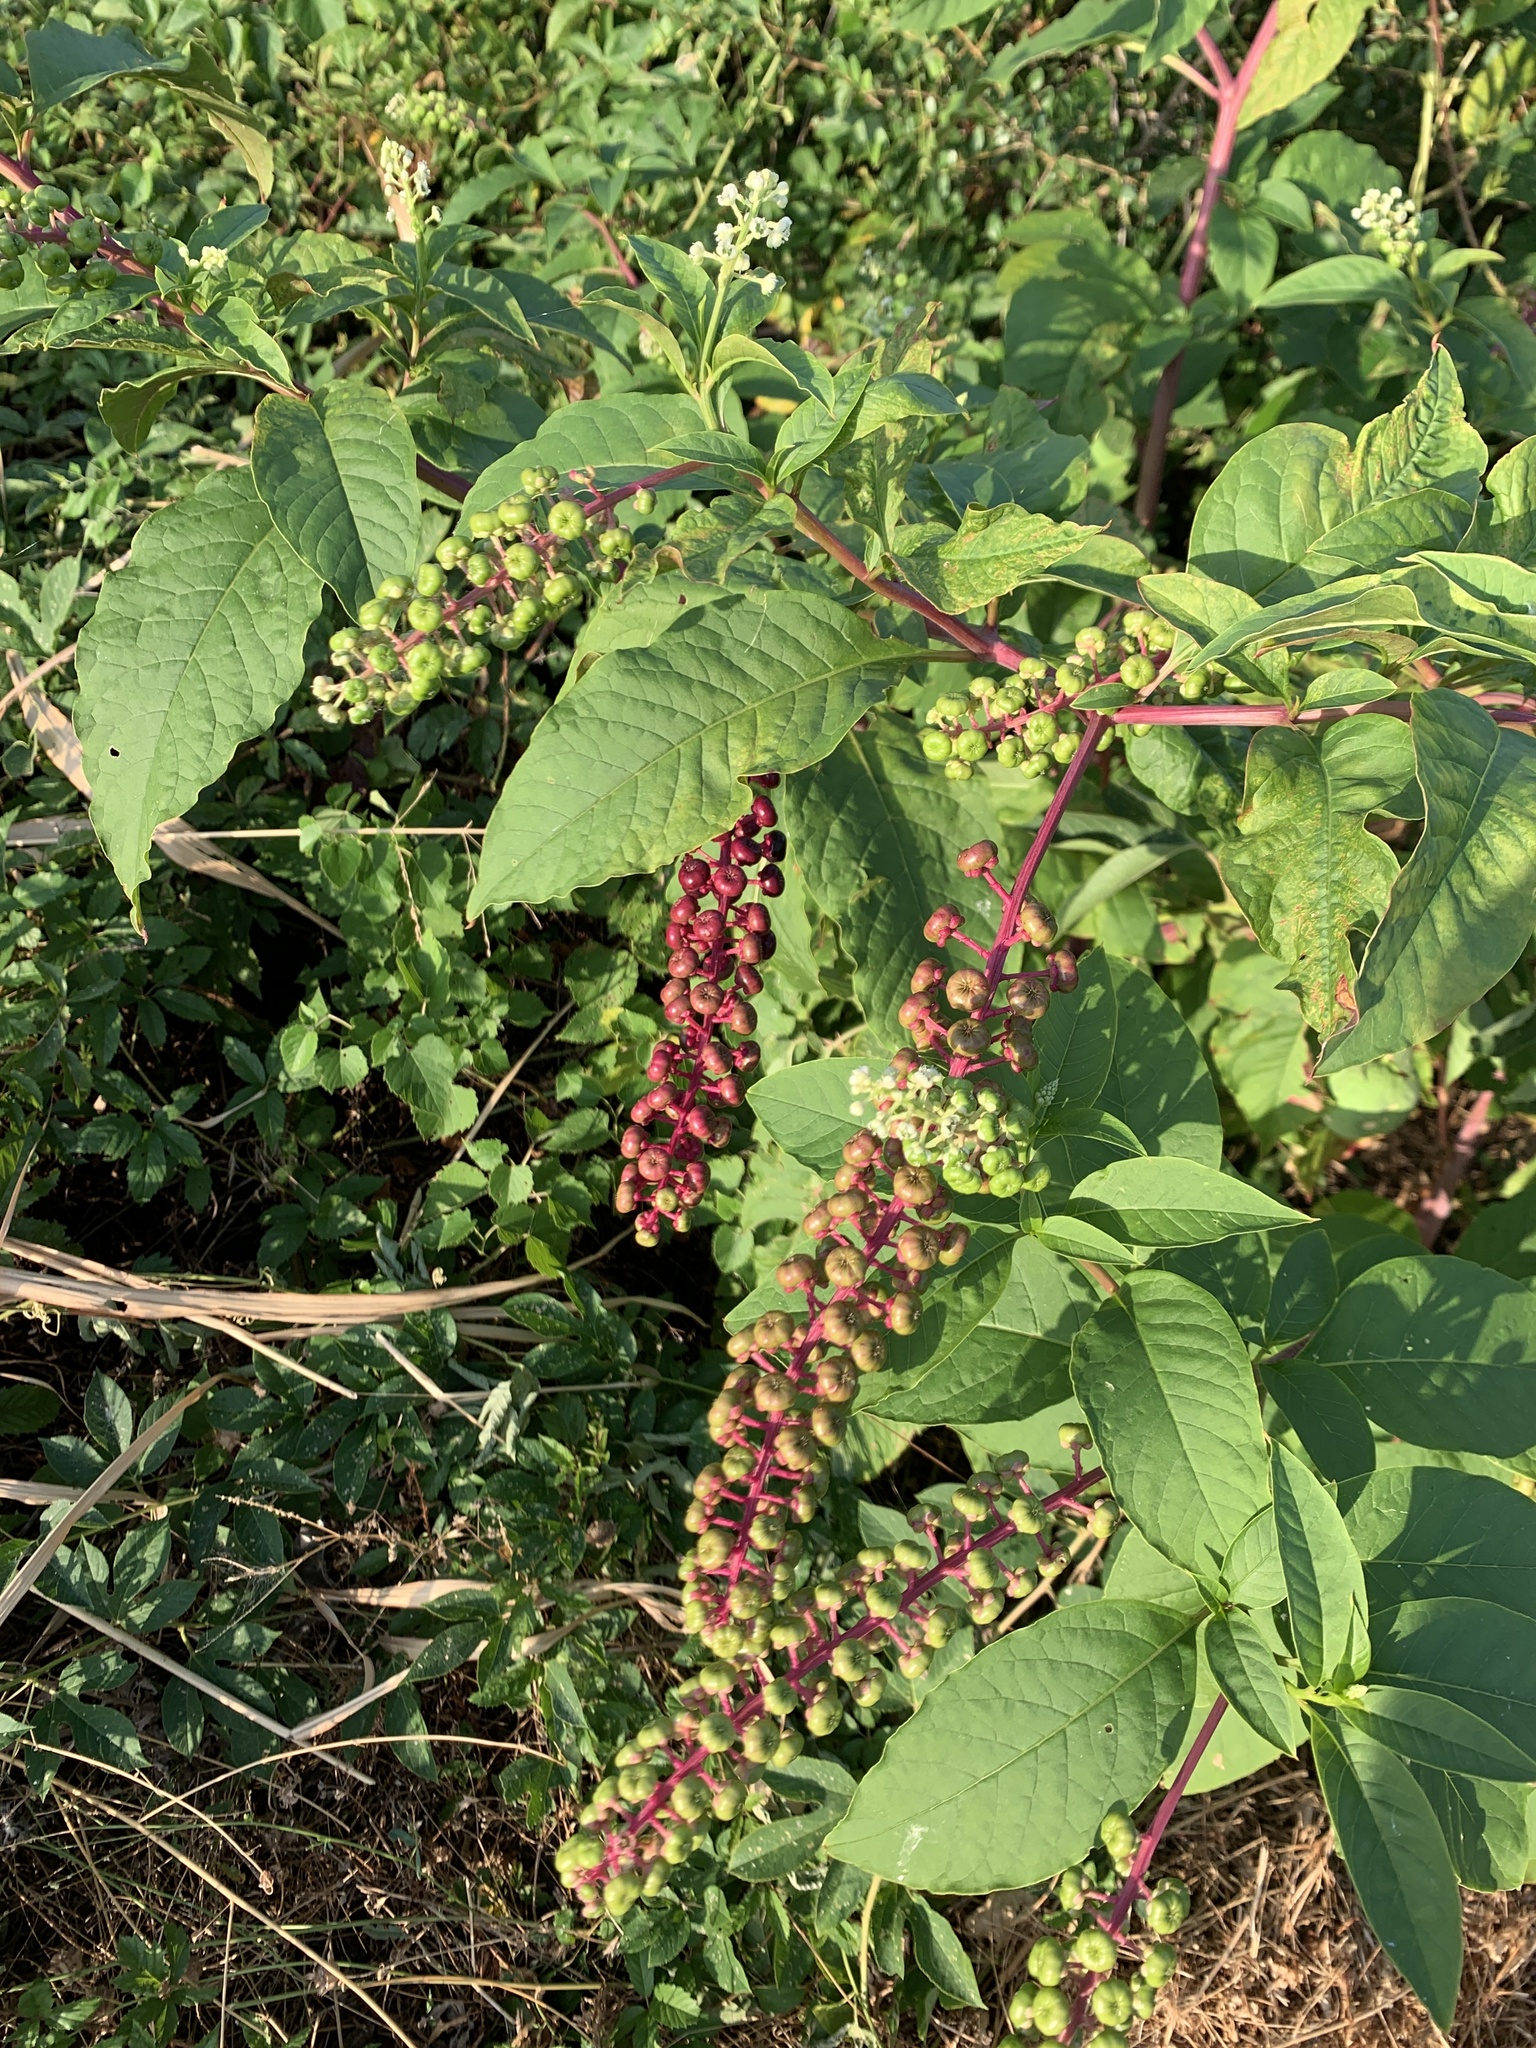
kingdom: Plantae
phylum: Tracheophyta
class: Magnoliopsida
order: Caryophyllales
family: Phytolaccaceae
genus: Phytolacca
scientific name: Phytolacca americana
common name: American pokeweed
